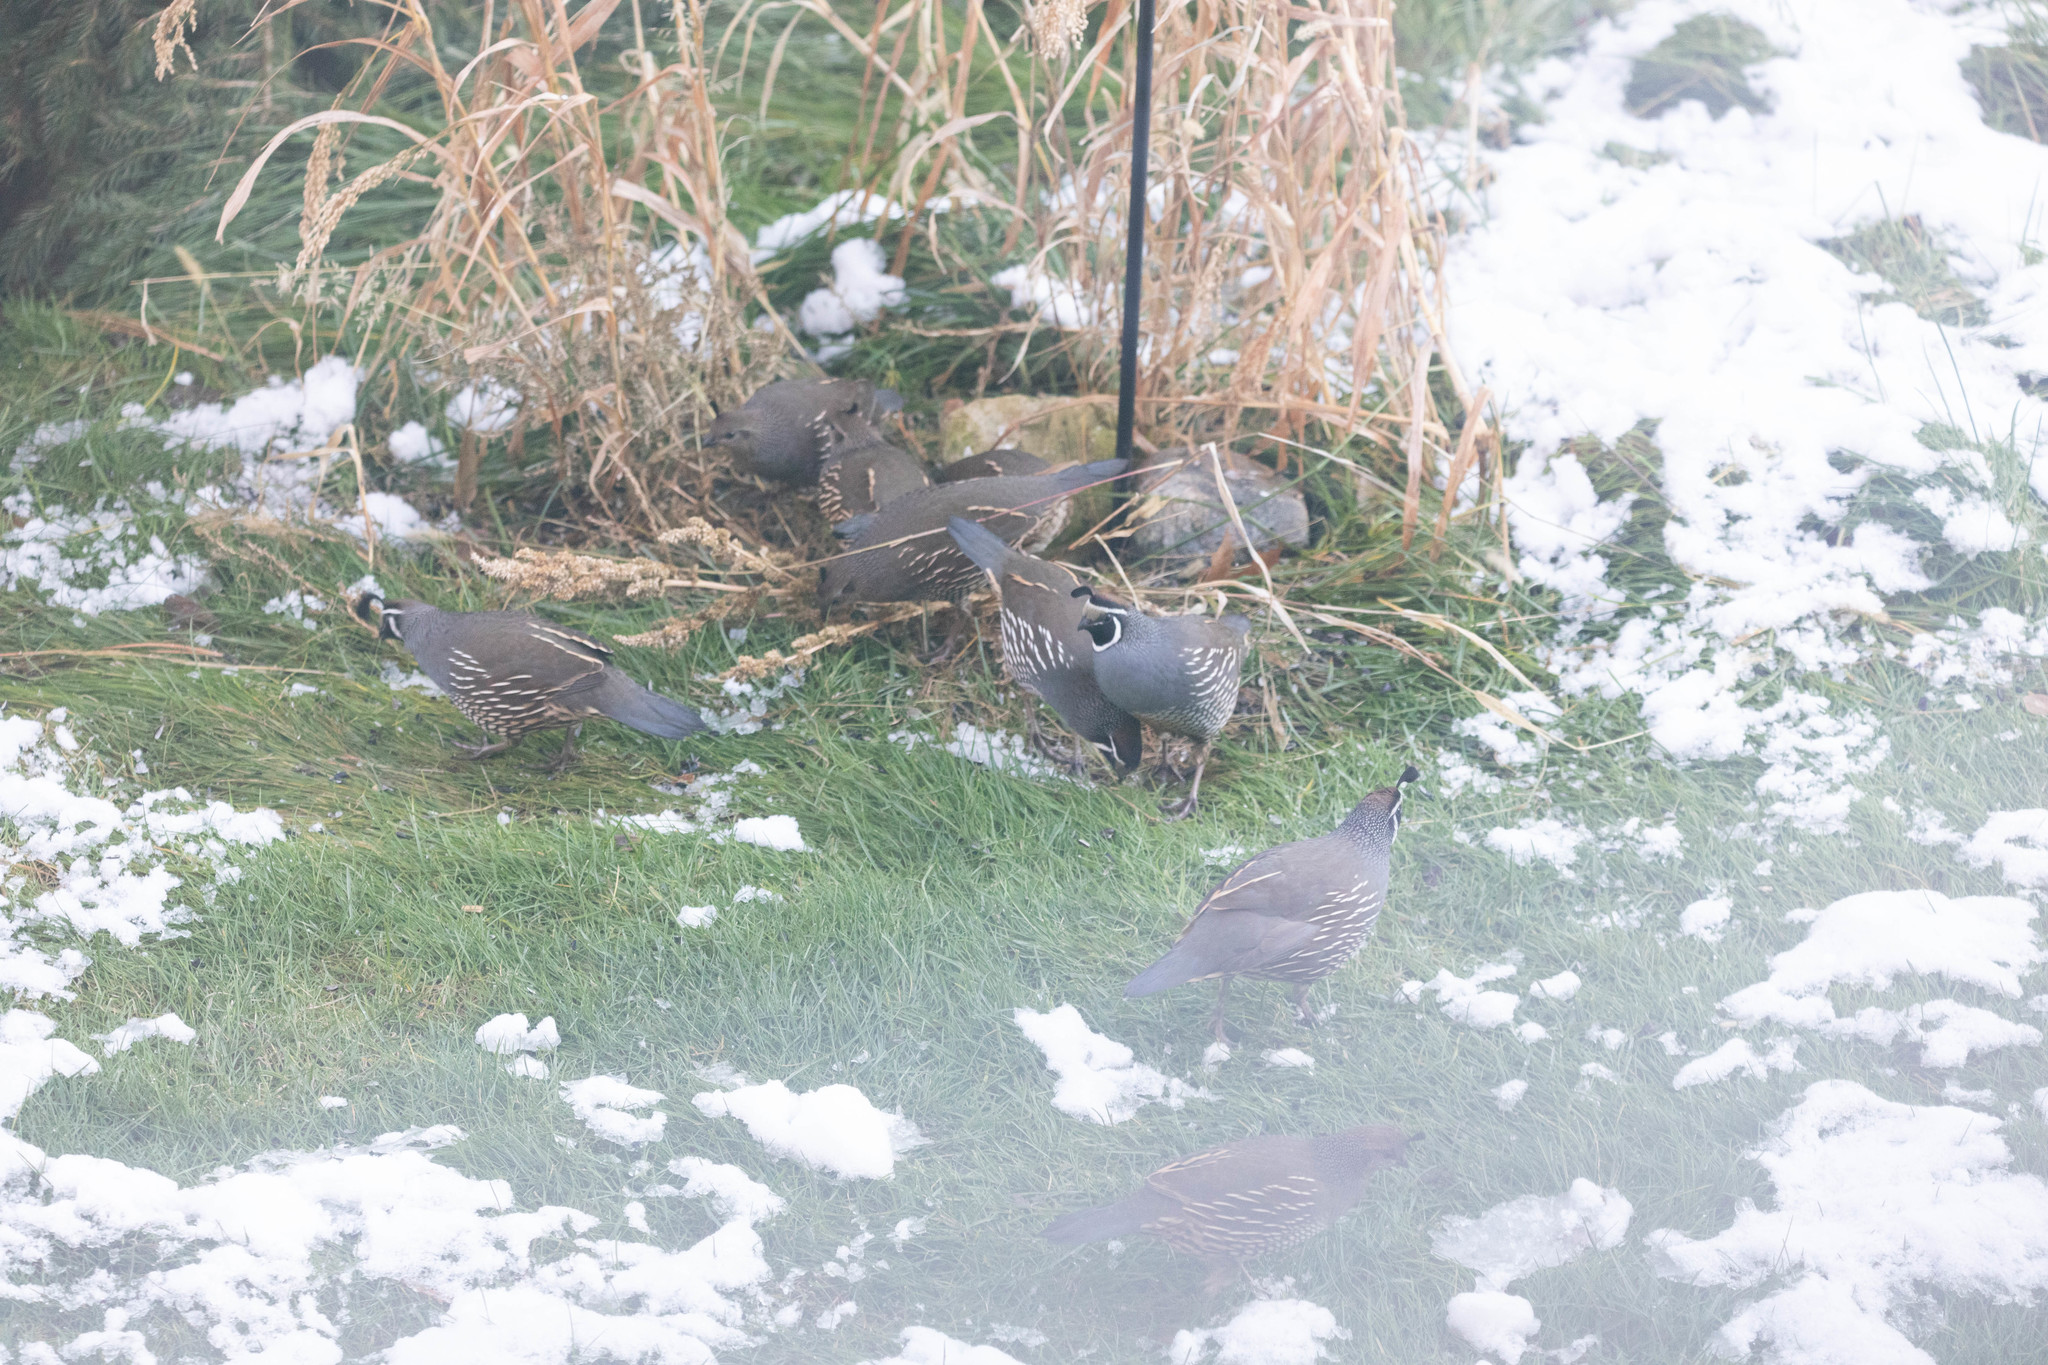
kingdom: Animalia
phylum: Chordata
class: Aves
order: Galliformes
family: Odontophoridae
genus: Callipepla
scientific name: Callipepla californica
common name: California quail
